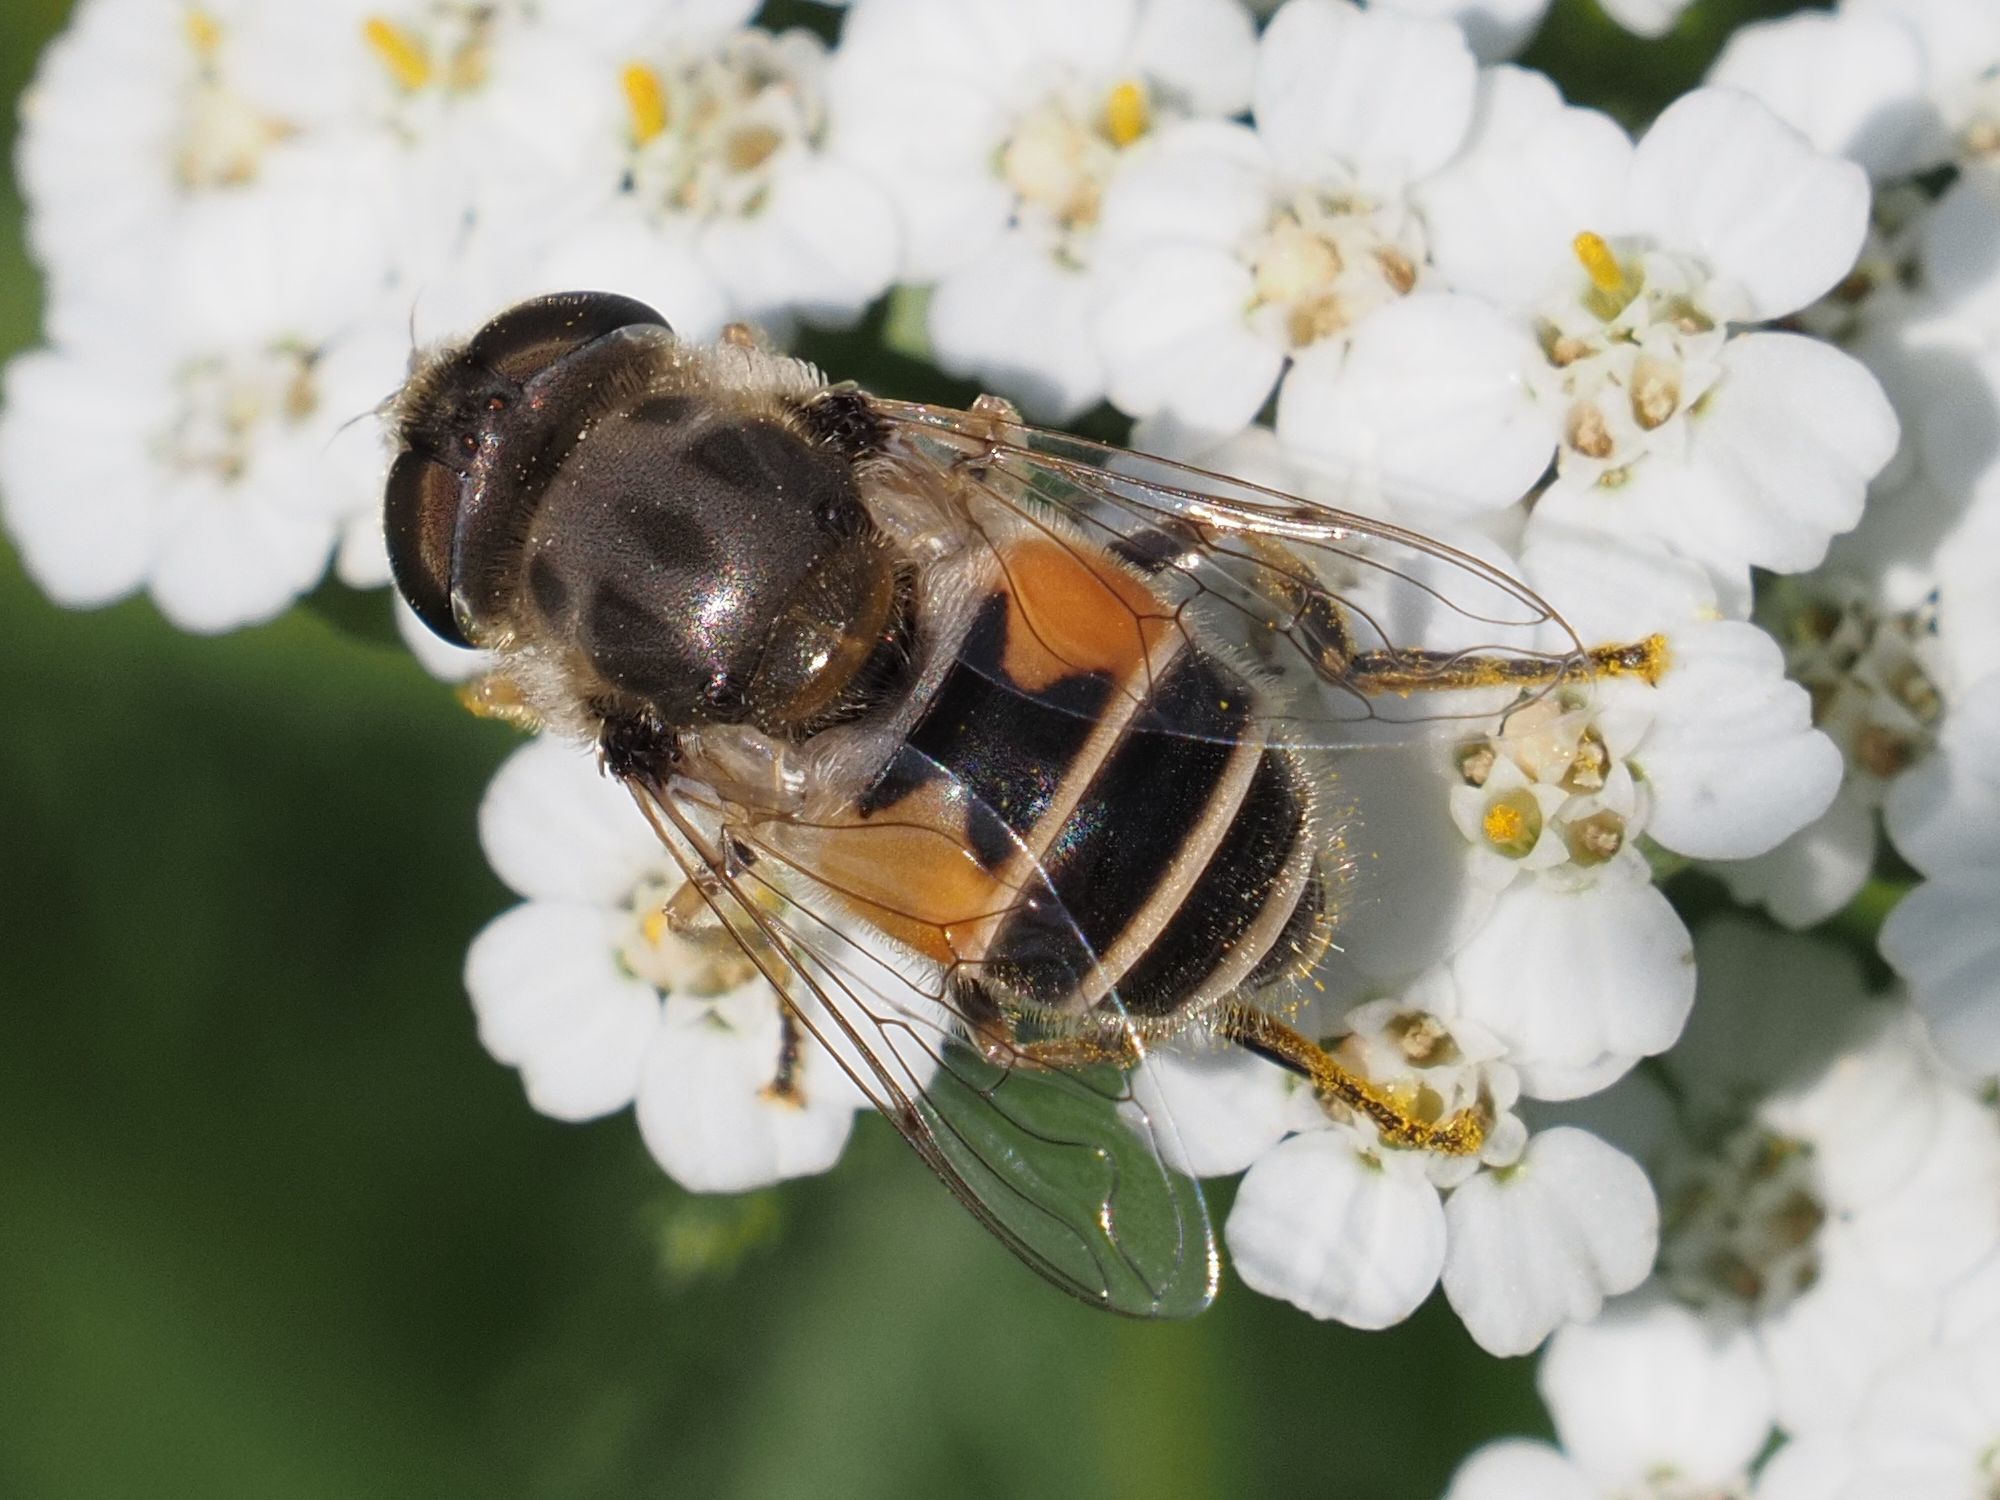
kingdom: Animalia
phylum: Arthropoda
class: Insecta
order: Diptera
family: Syrphidae
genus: Eristalis
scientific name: Eristalis arbustorum
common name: Hover fly
